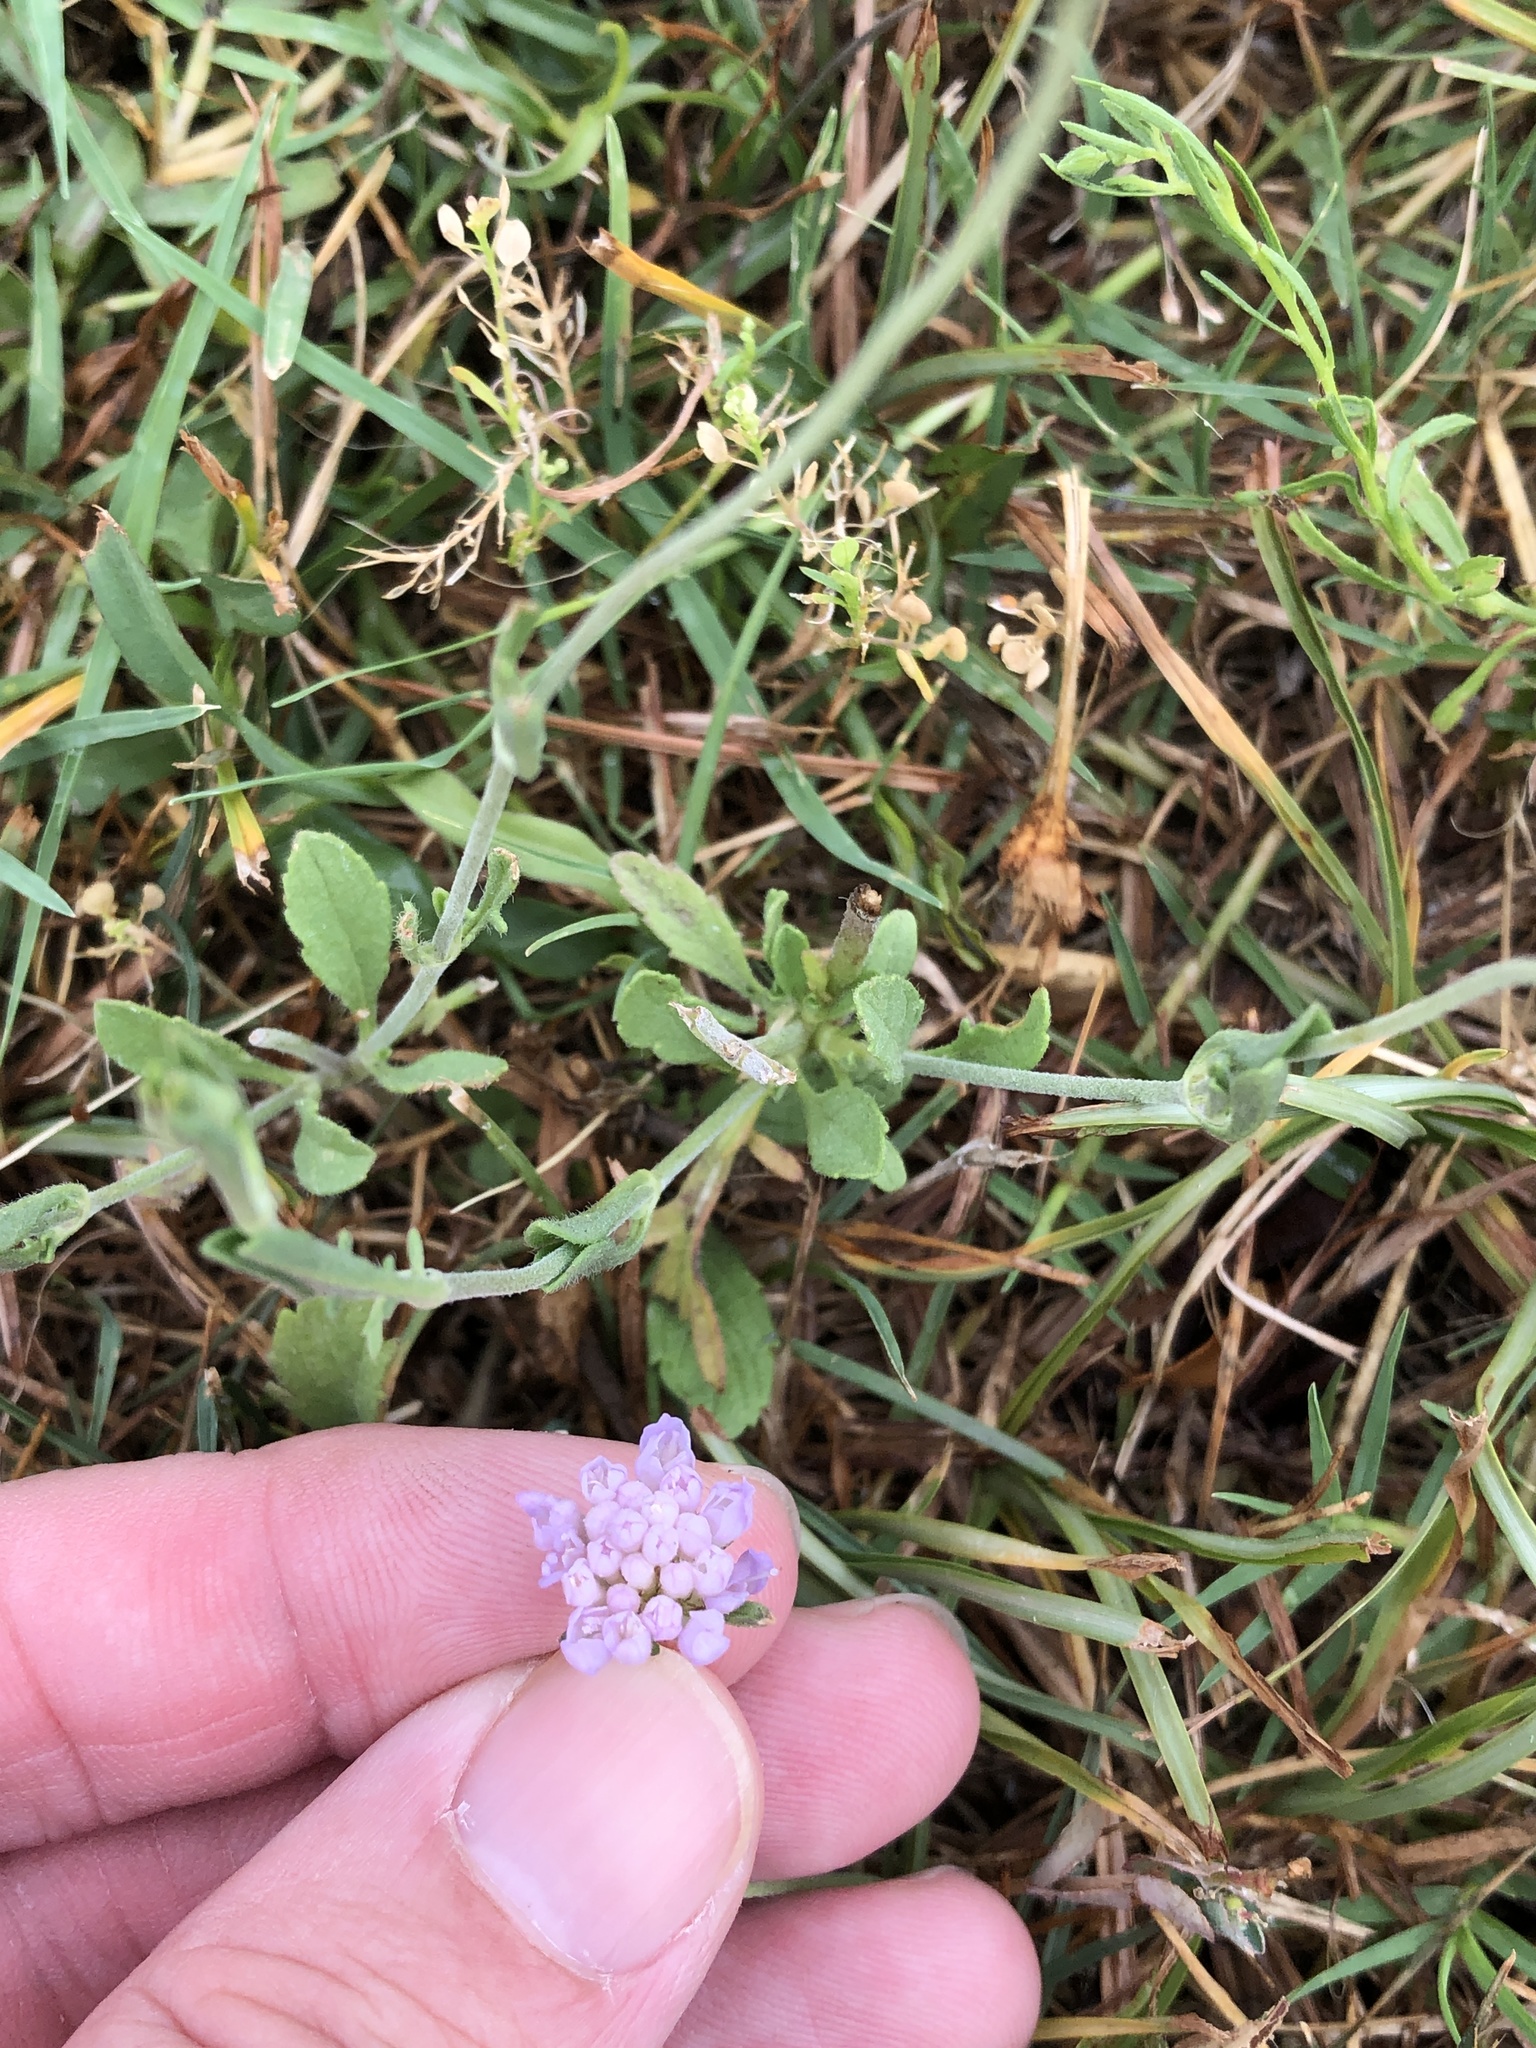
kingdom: Plantae
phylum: Tracheophyta
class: Magnoliopsida
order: Dipsacales
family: Caprifoliaceae
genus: Sixalix
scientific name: Sixalix atropurpurea
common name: Sweet scabious
